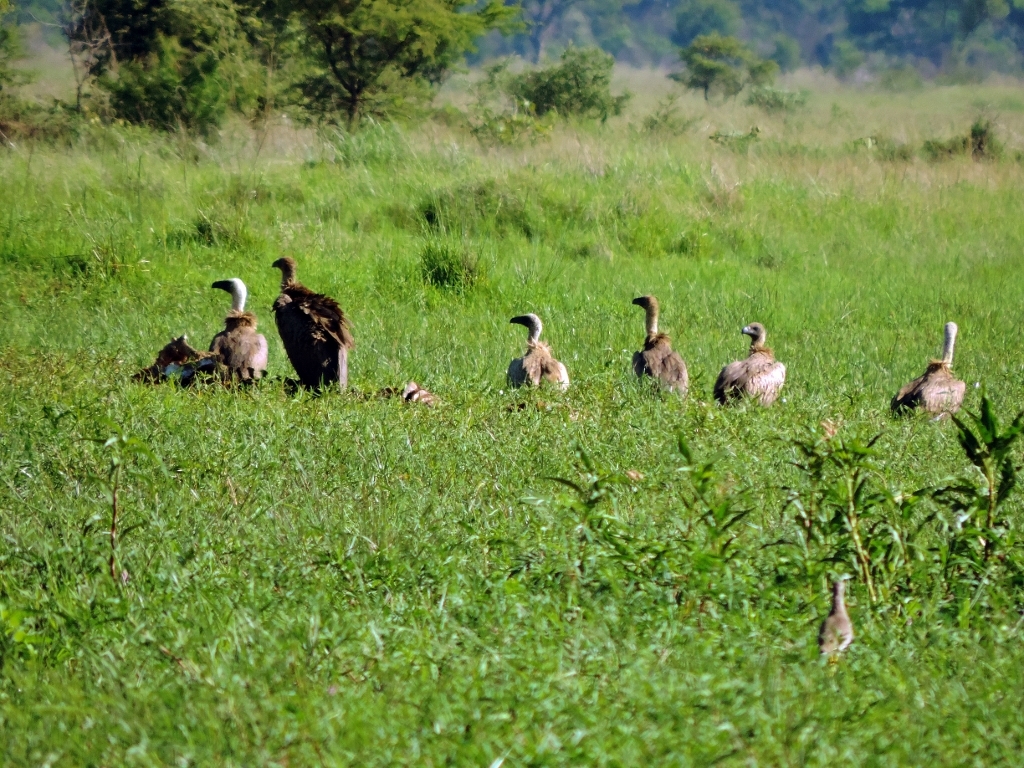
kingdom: Animalia
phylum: Chordata
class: Aves
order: Accipitriformes
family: Accipitridae
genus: Gyps
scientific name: Gyps africanus
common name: White-backed vulture
